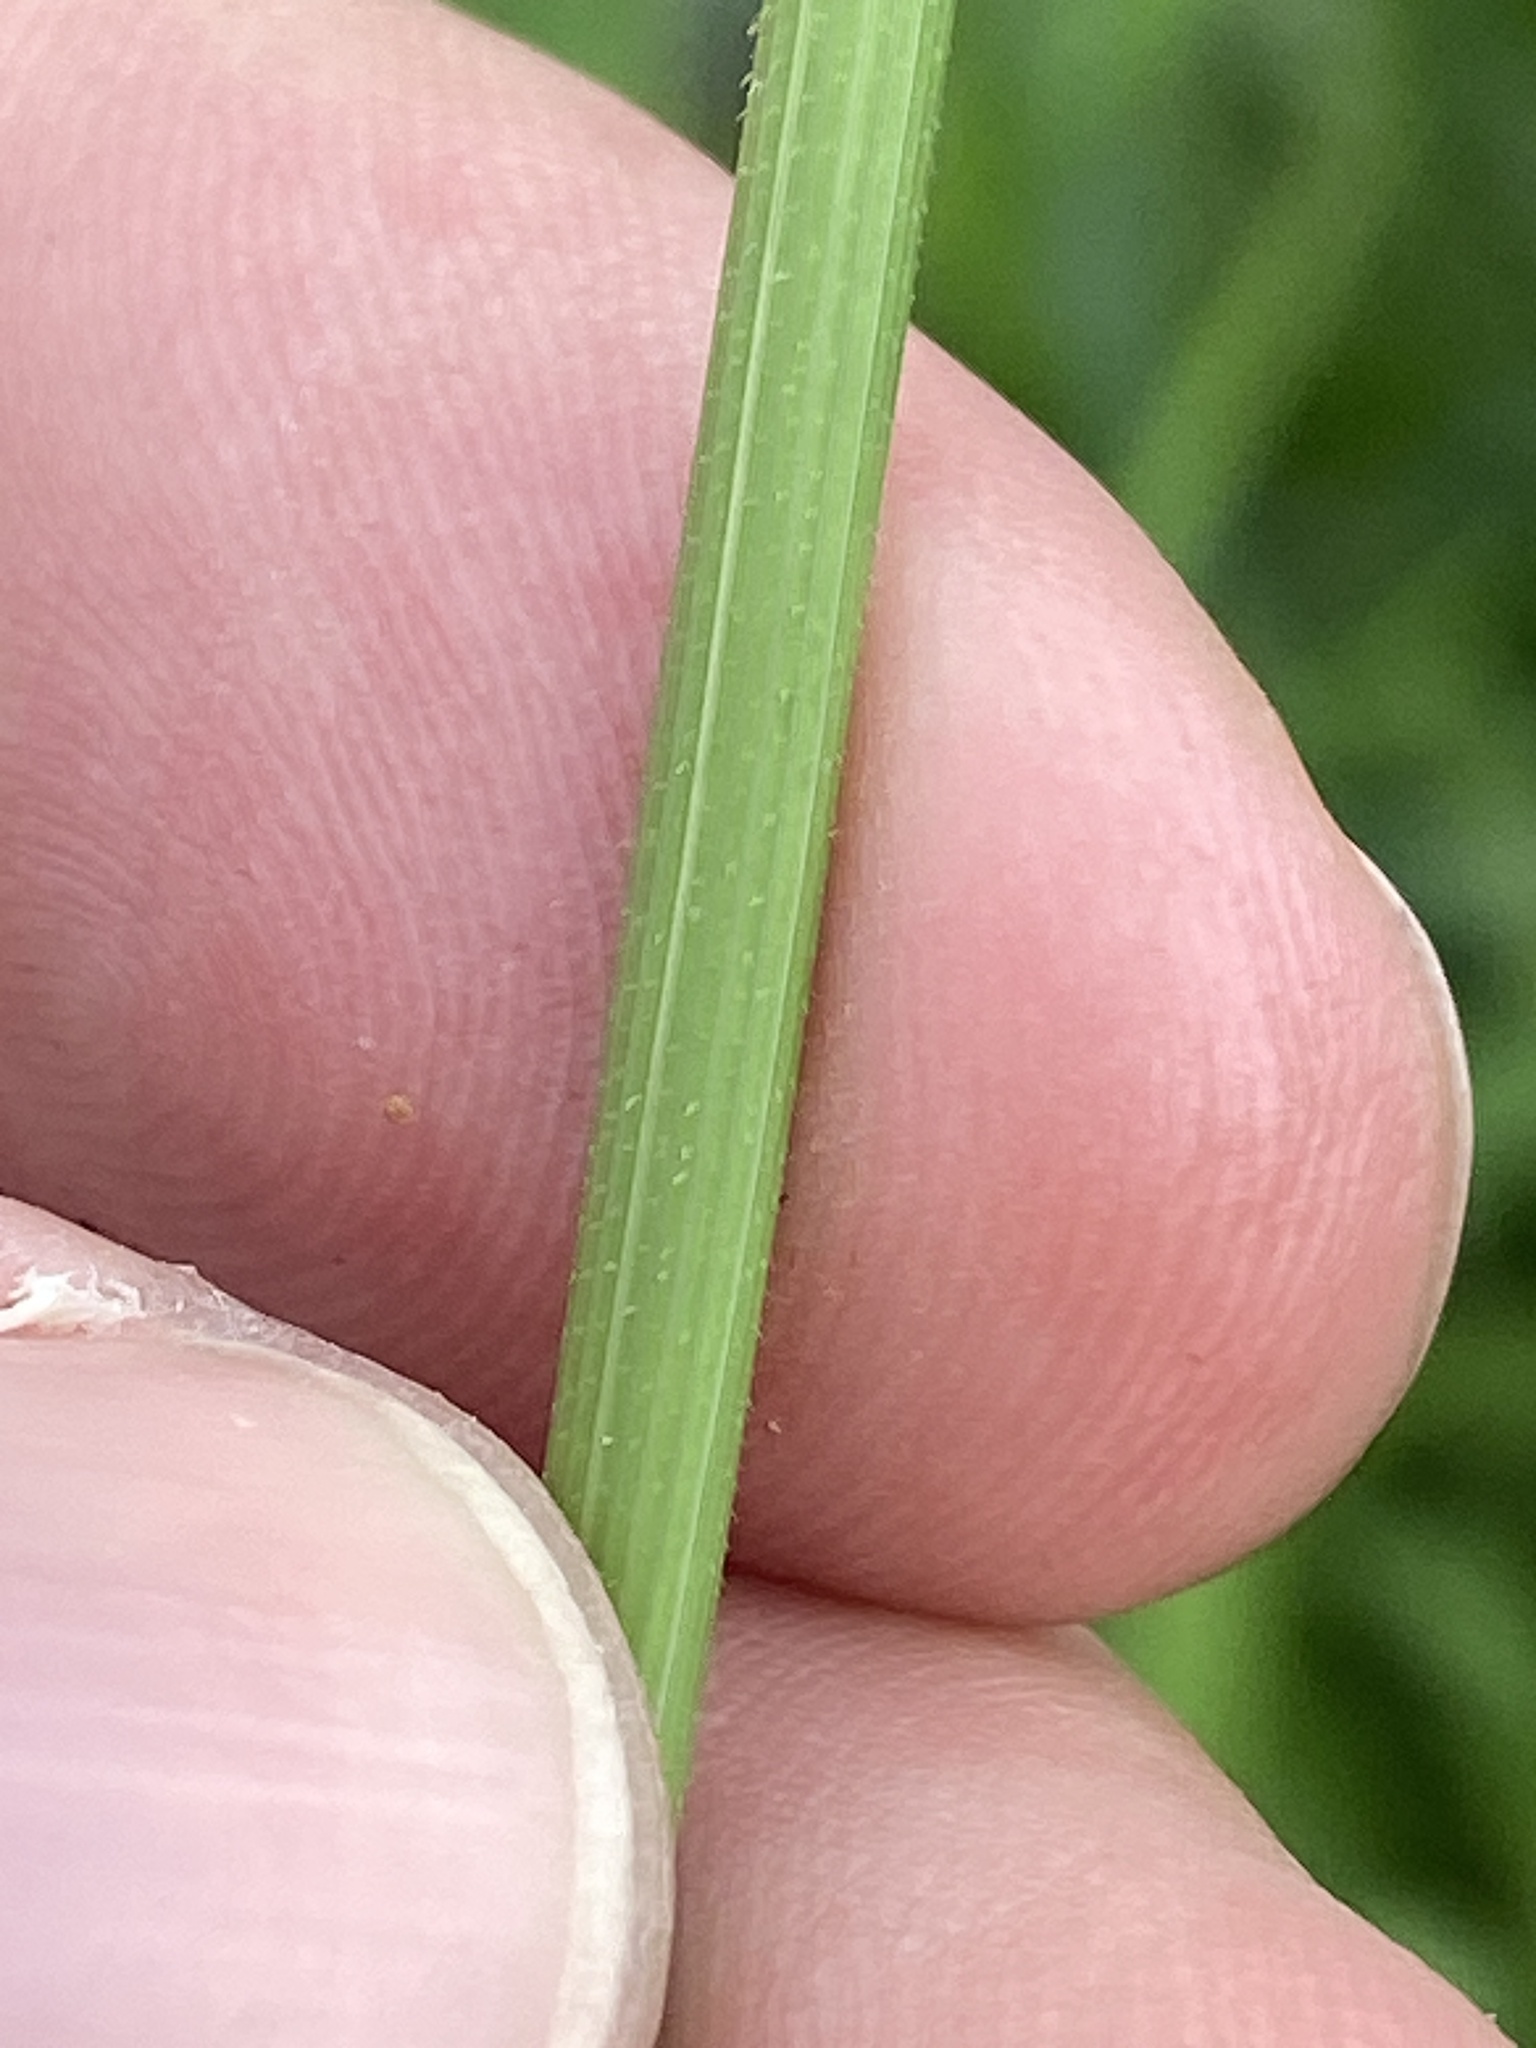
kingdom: Plantae
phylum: Tracheophyta
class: Liliopsida
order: Poales
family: Poaceae
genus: Leersia
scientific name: Leersia oryzoides
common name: Cut-grass
